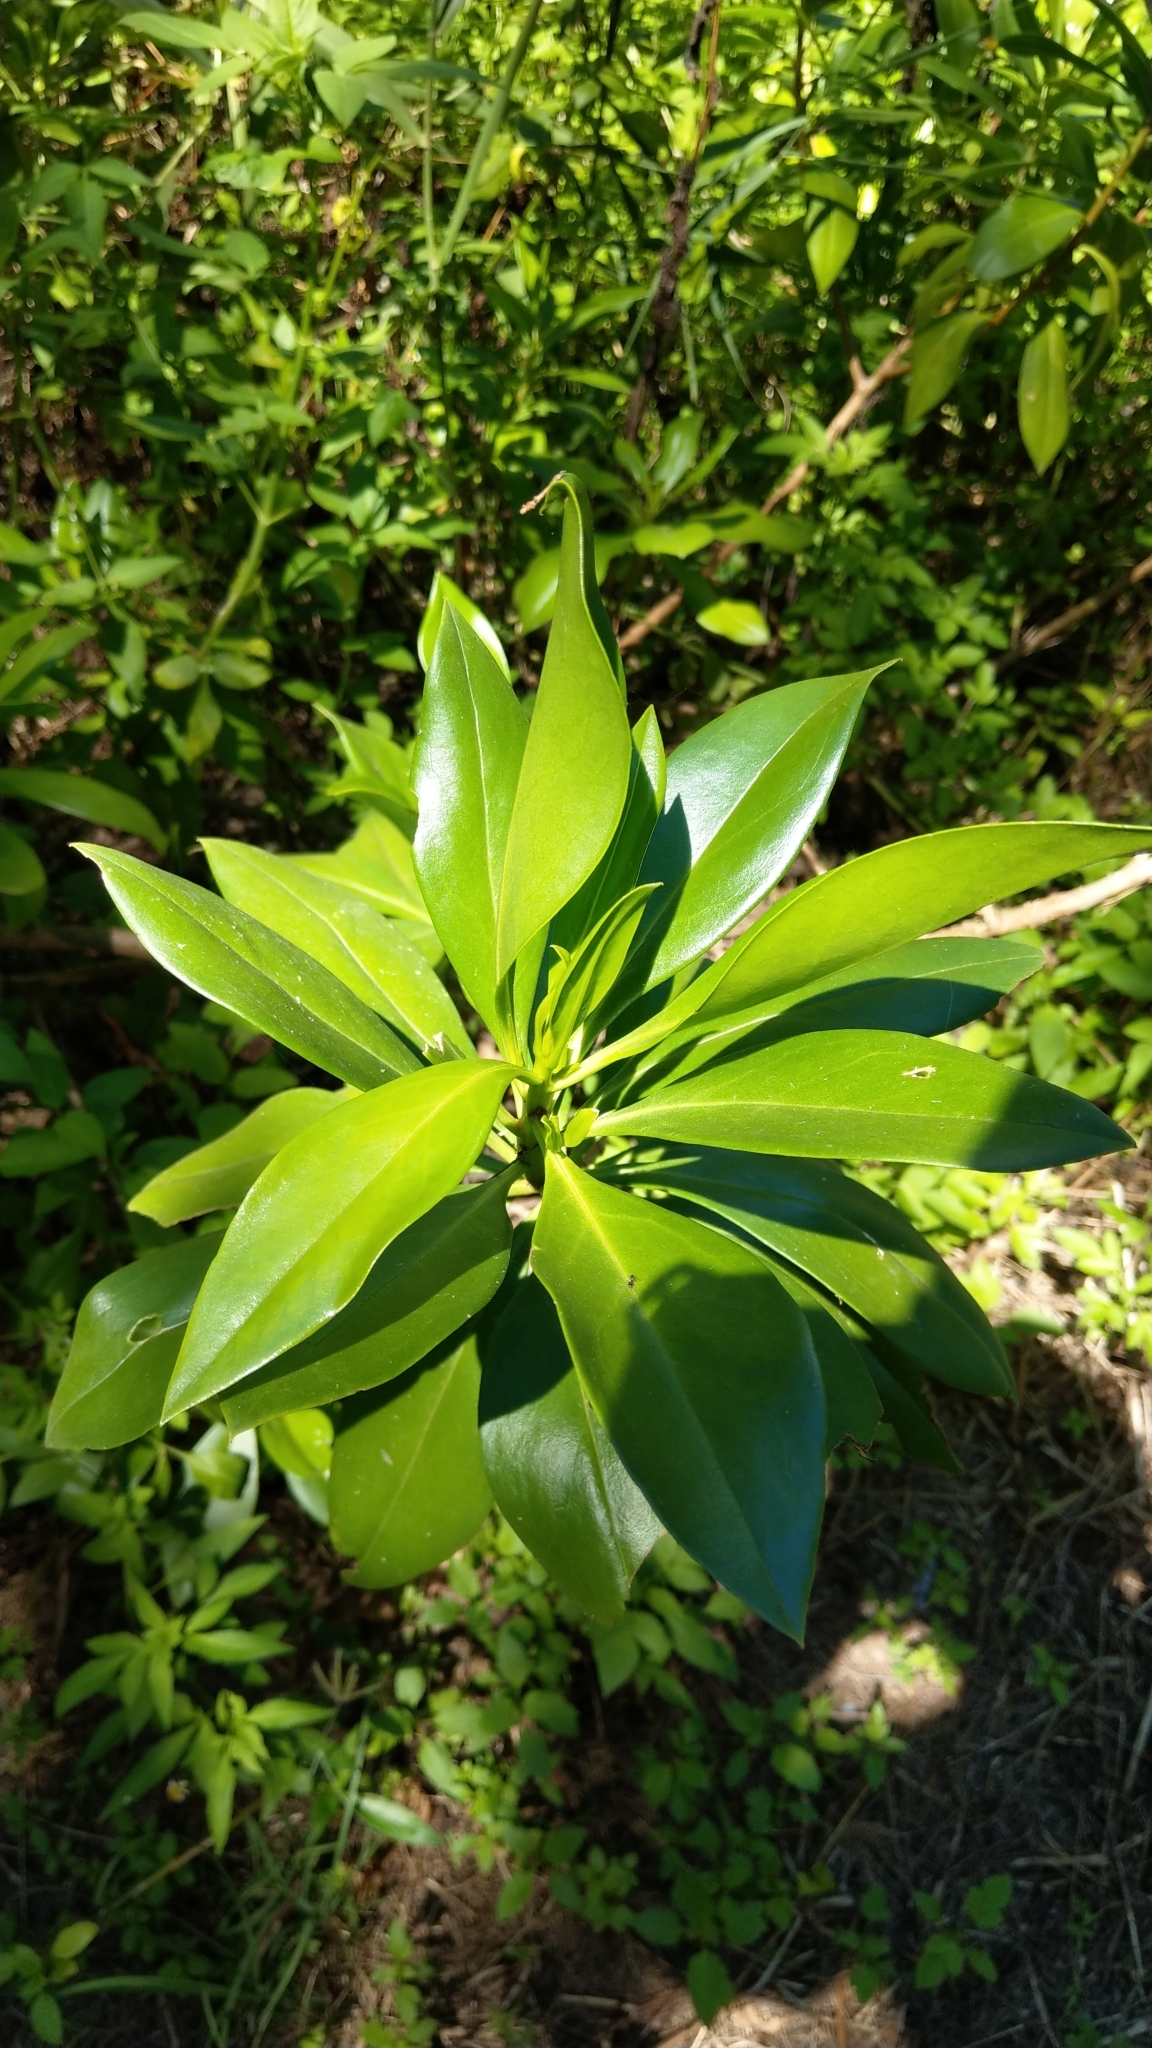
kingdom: Plantae
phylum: Tracheophyta
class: Magnoliopsida
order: Lamiales
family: Scrophulariaceae
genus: Myoporum
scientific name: Myoporum bontioides
